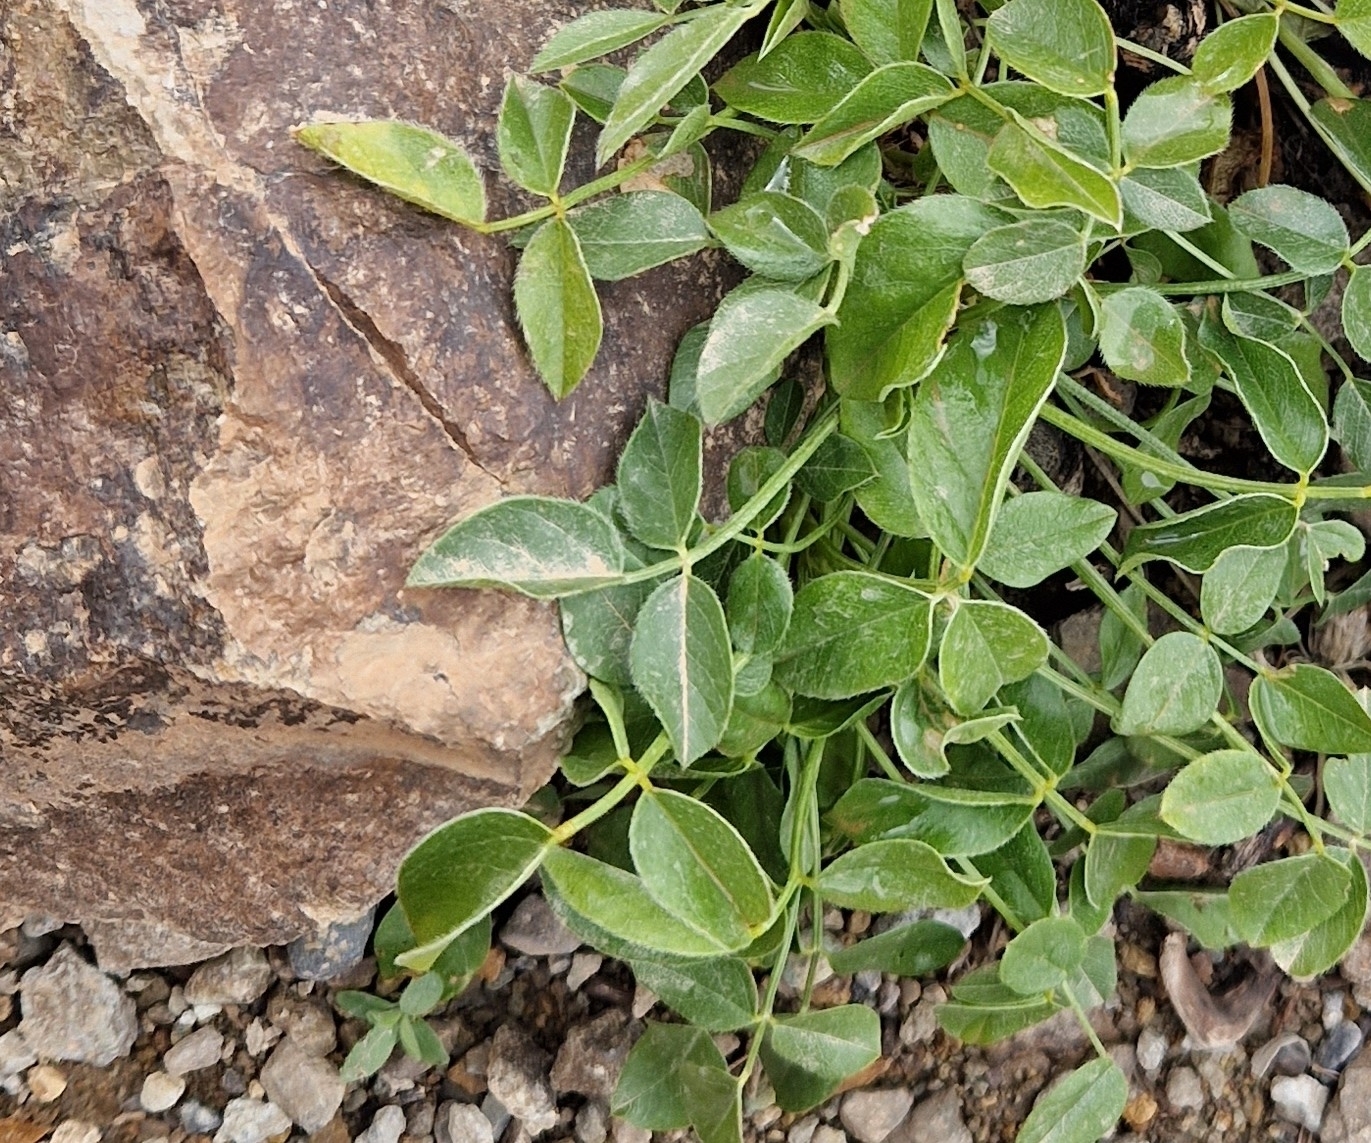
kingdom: Plantae
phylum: Tracheophyta
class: Magnoliopsida
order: Fabales
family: Fabaceae
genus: Bituminaria
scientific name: Bituminaria bituminosa
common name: Arabian pea
